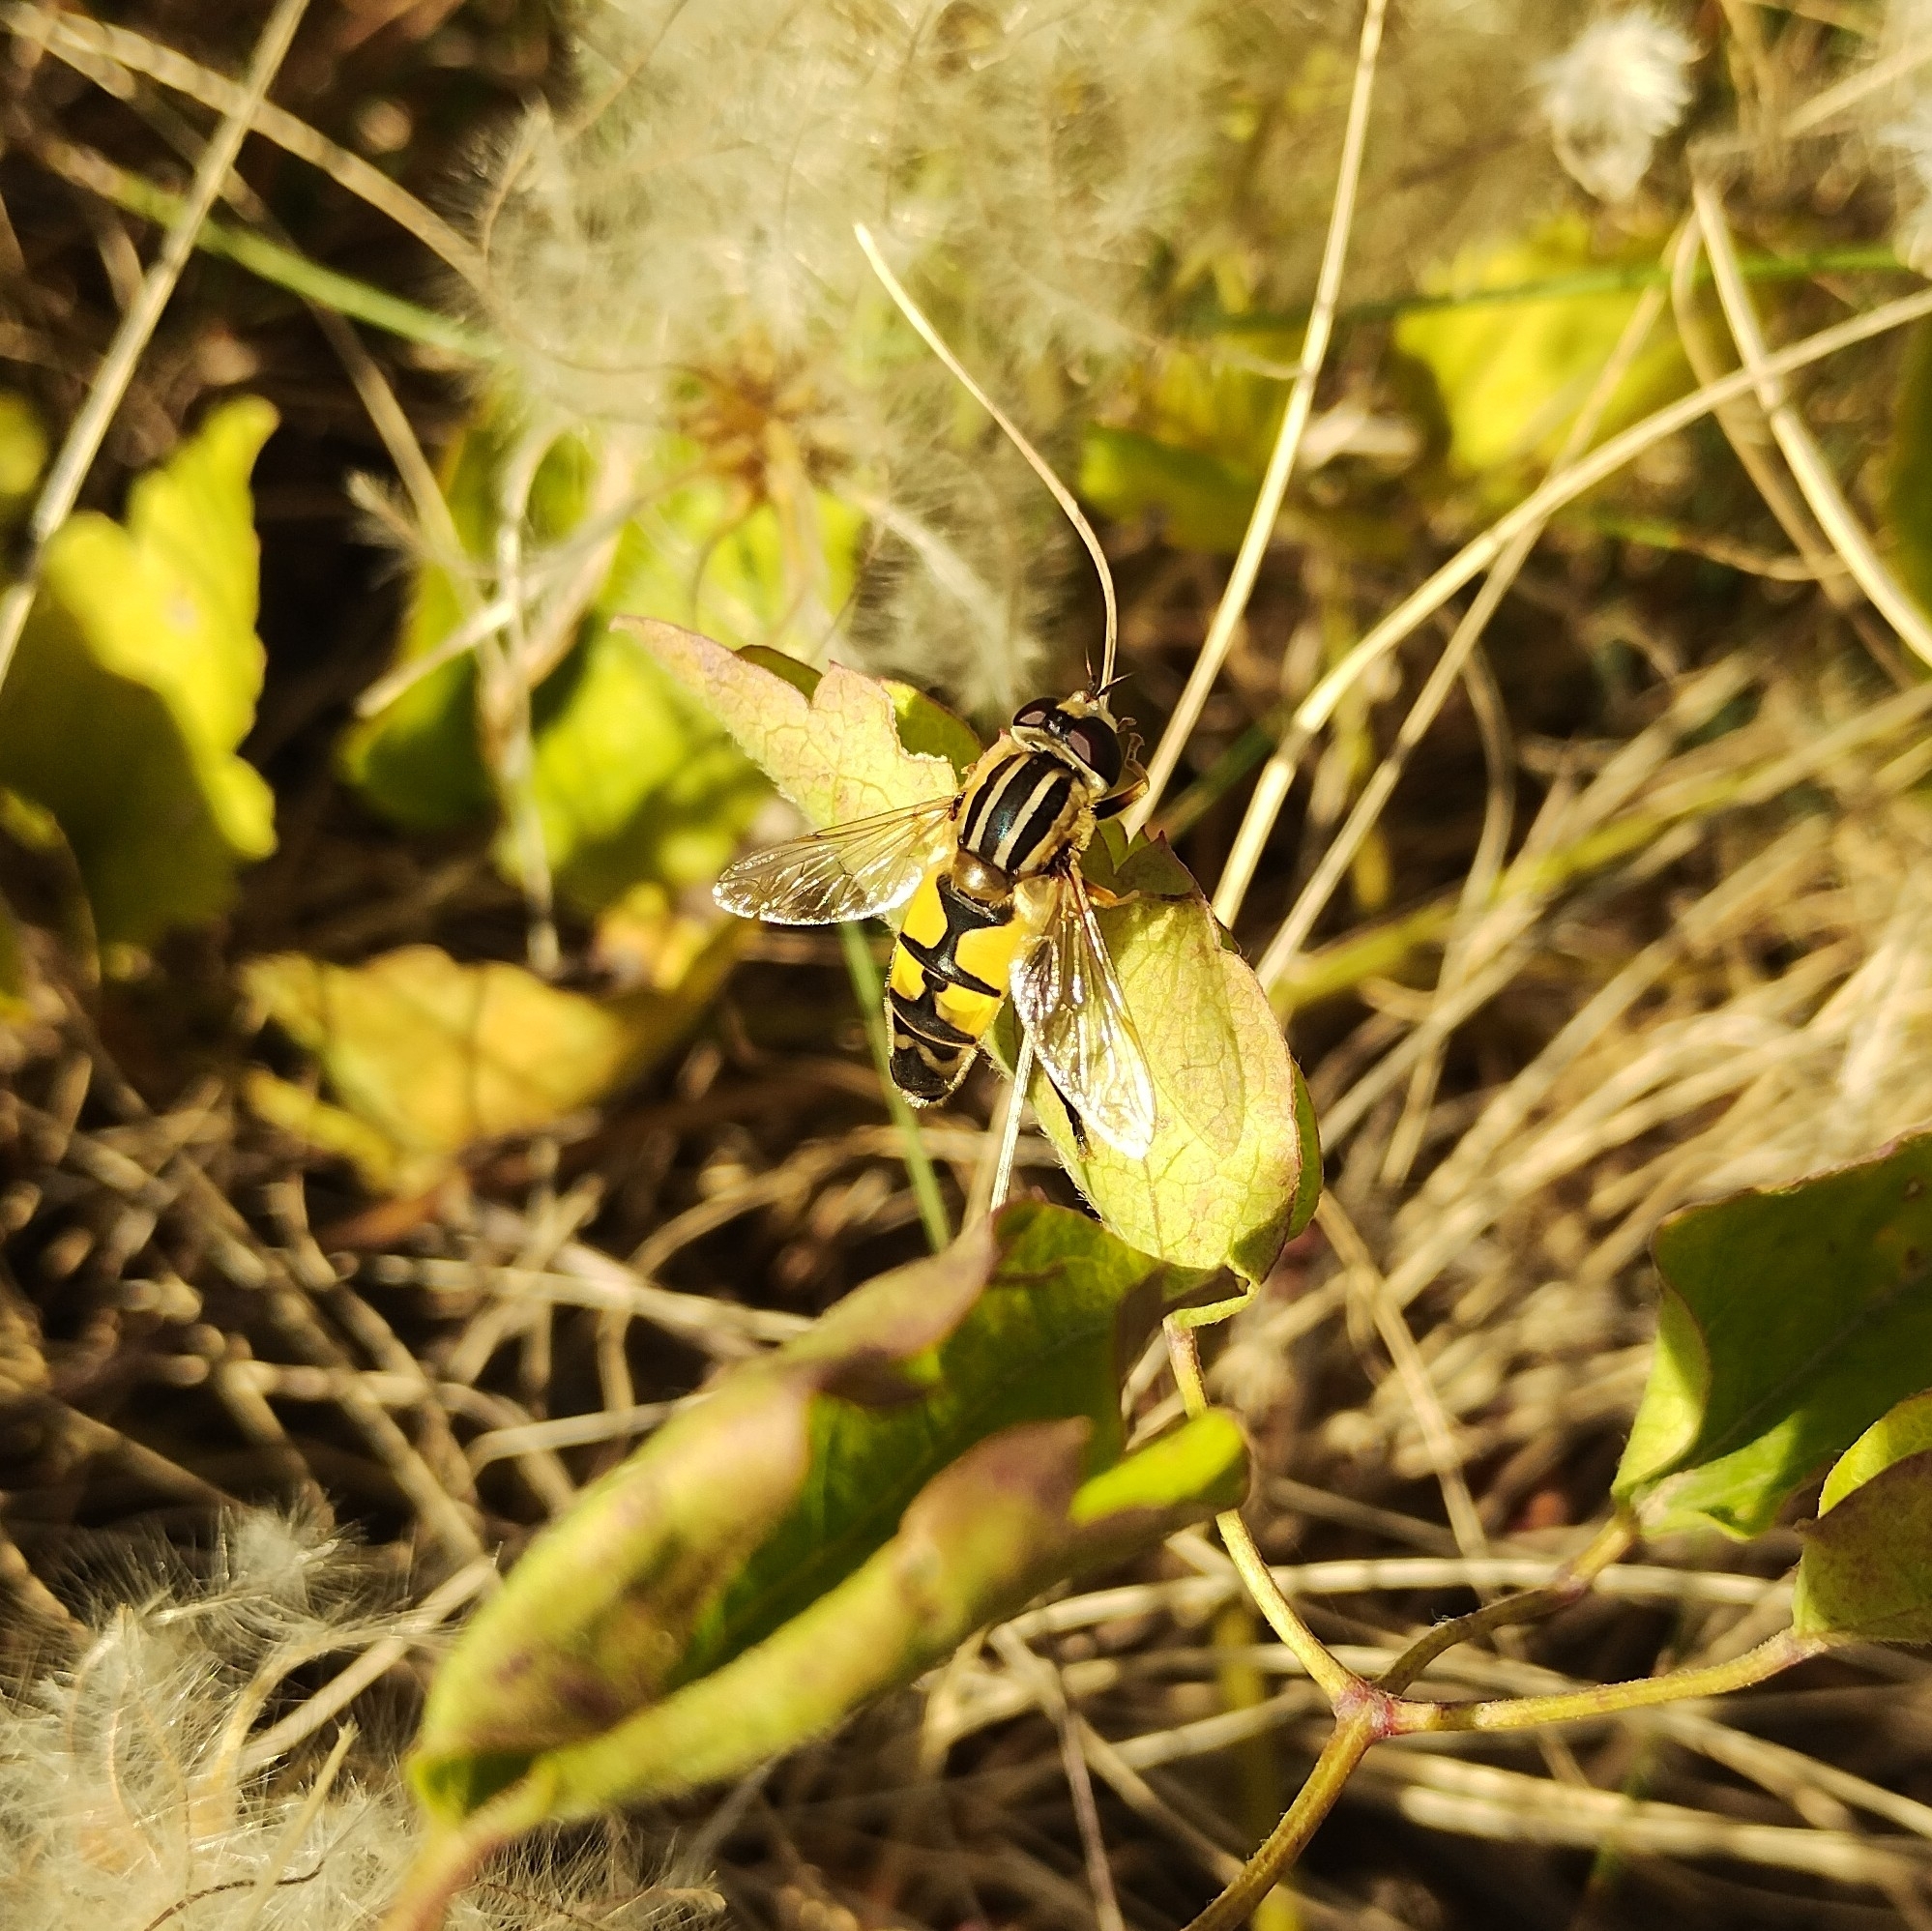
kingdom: Animalia
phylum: Arthropoda
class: Insecta
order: Diptera
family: Syrphidae
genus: Helophilus
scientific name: Helophilus trivittatus
